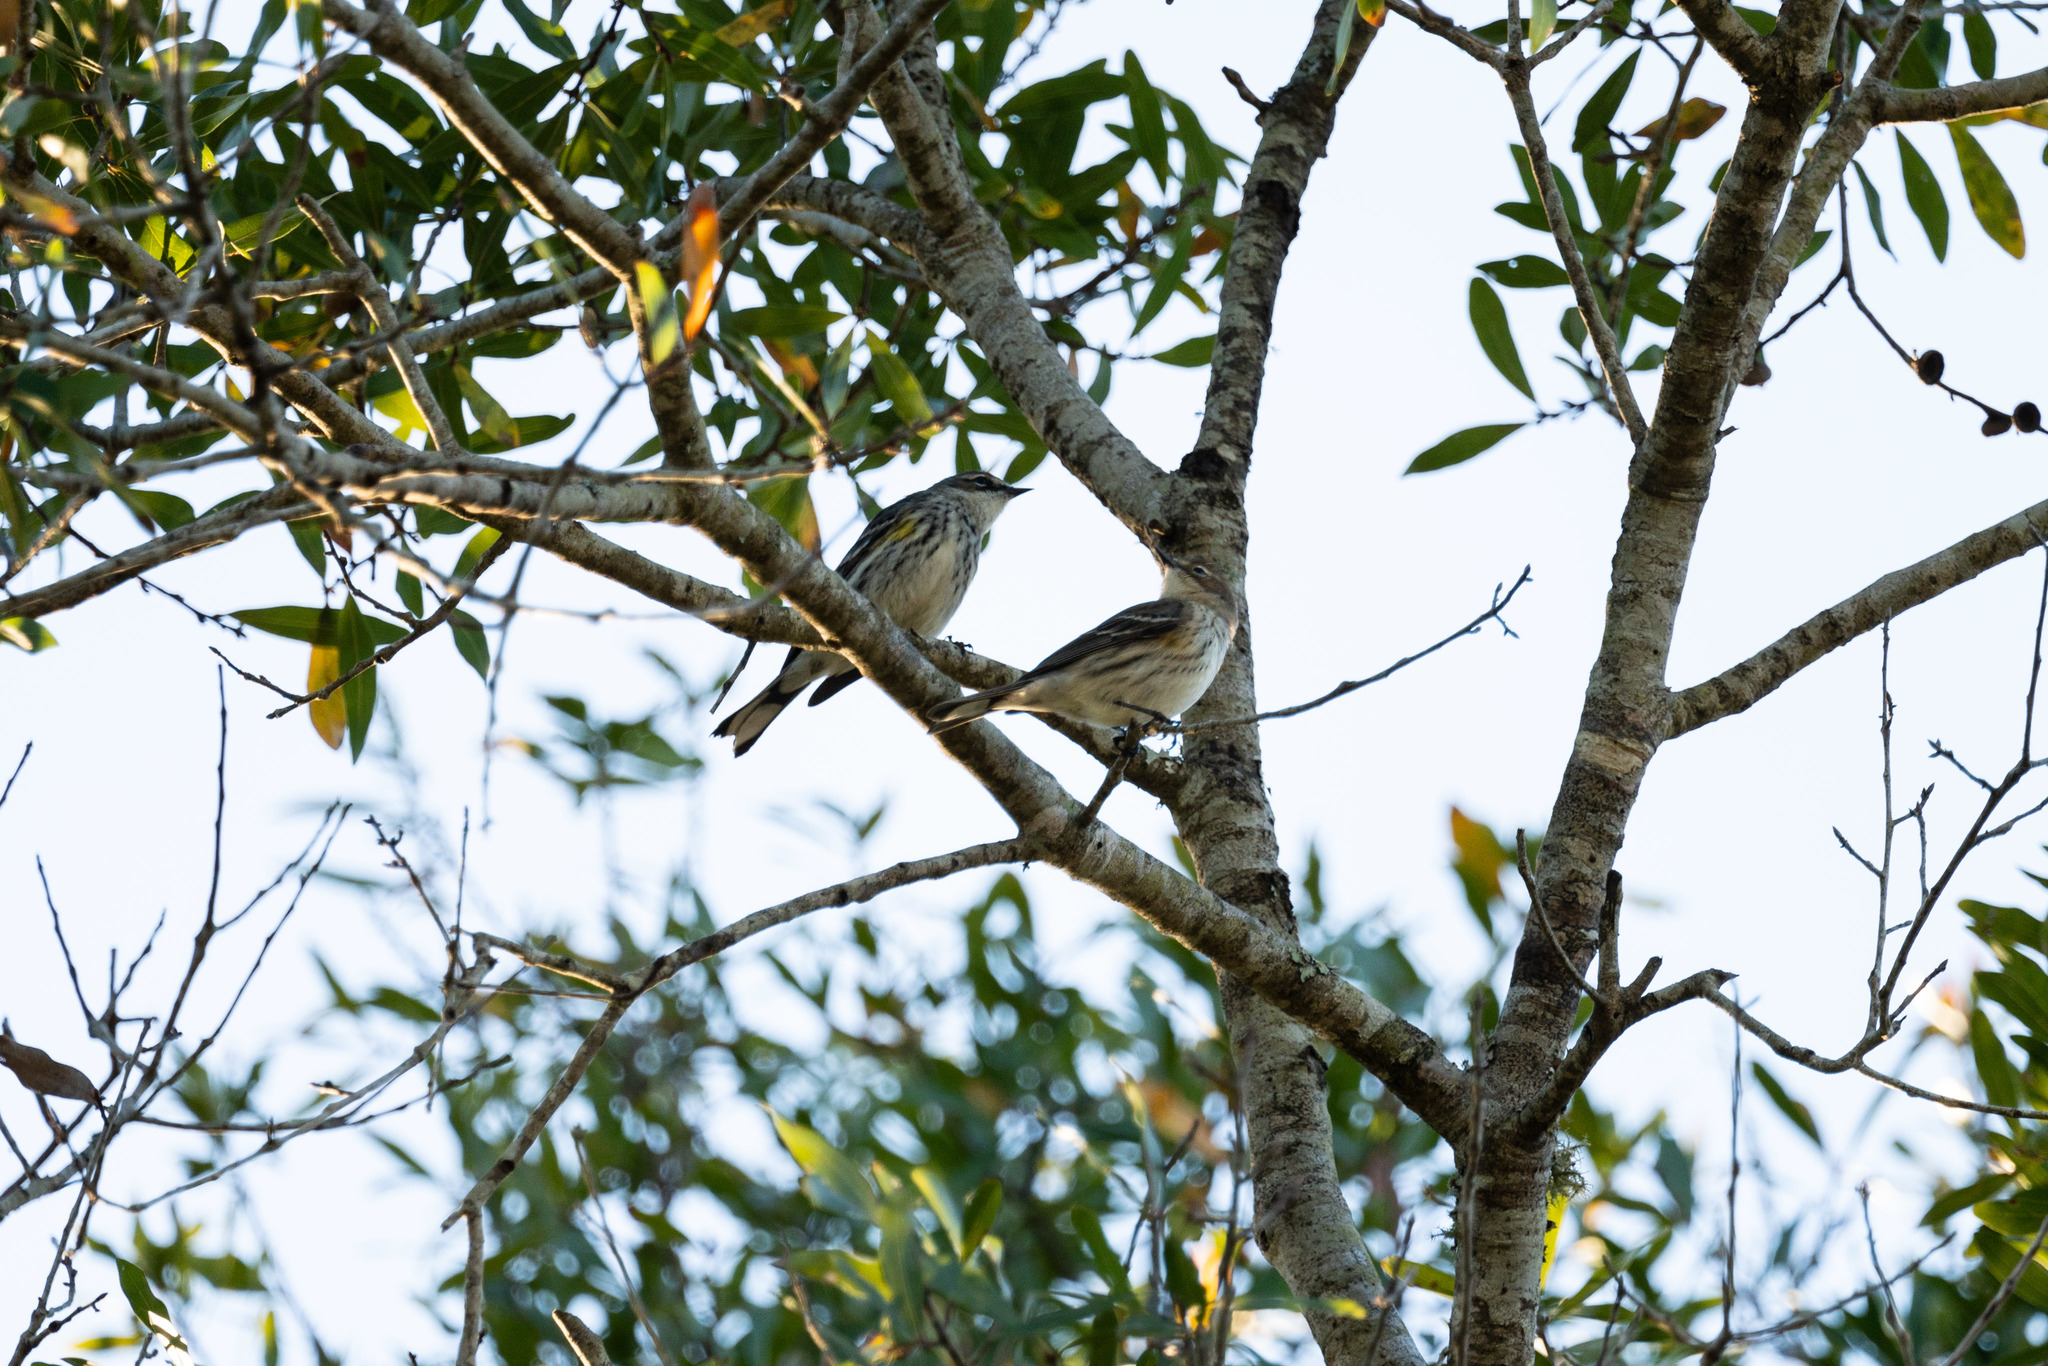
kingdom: Animalia
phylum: Chordata
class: Aves
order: Passeriformes
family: Parulidae
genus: Setophaga
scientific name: Setophaga coronata
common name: Myrtle warbler
